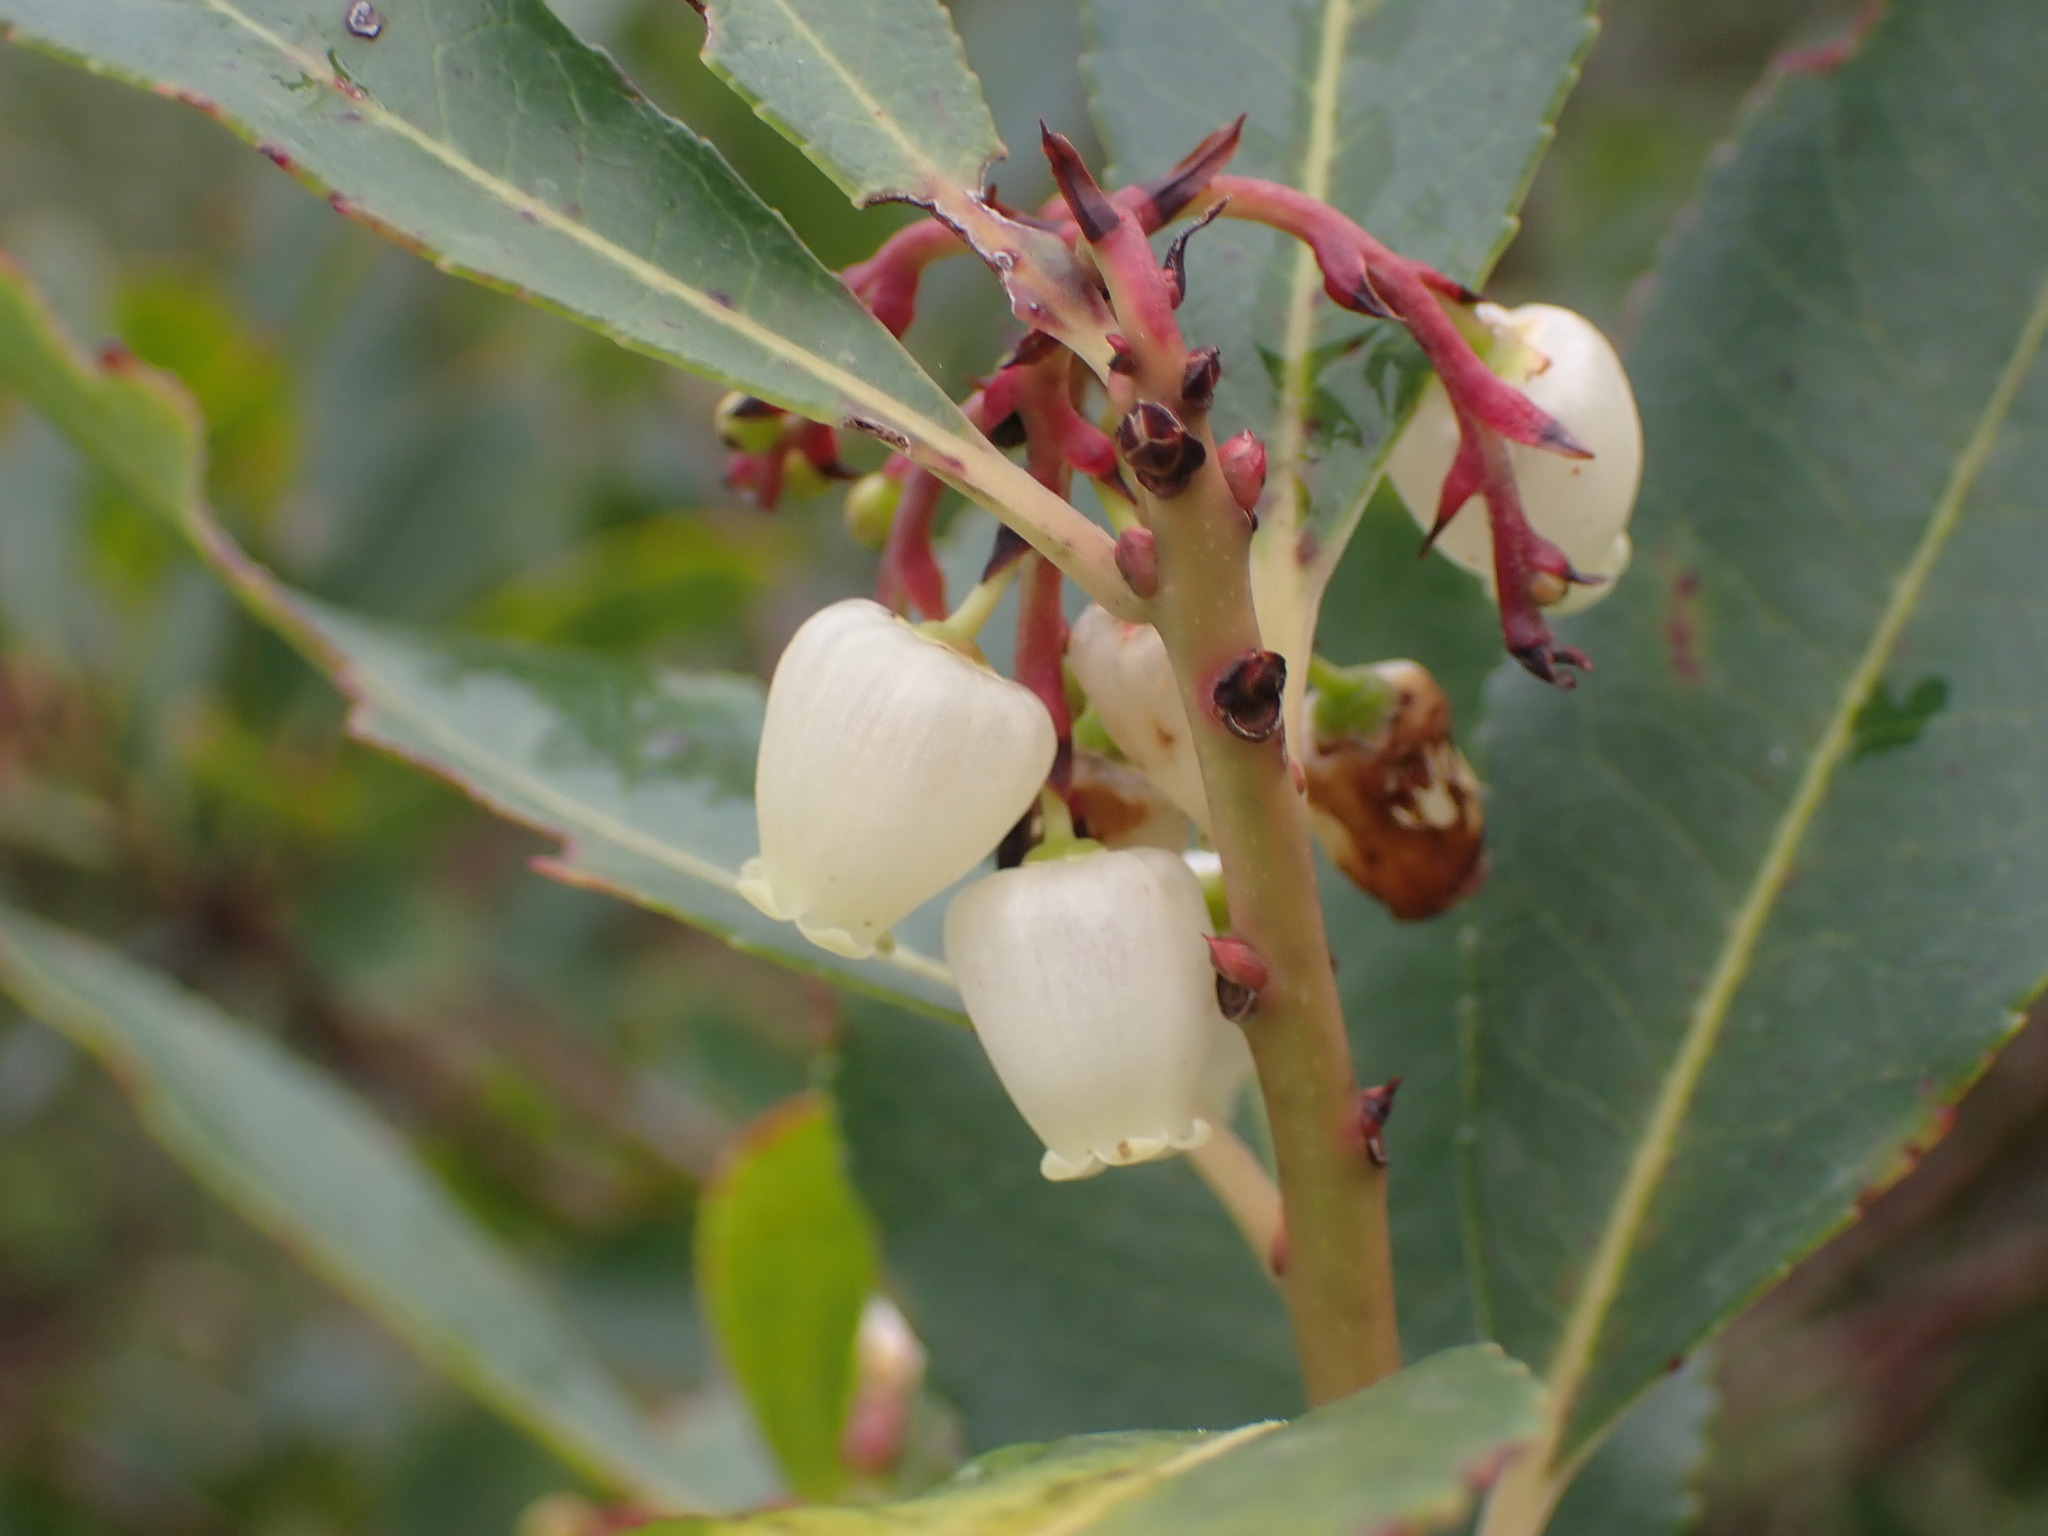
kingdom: Plantae
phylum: Tracheophyta
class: Magnoliopsida
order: Ericales
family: Ericaceae
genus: Arbutus
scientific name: Arbutus unedo
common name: Strawberry-tree
